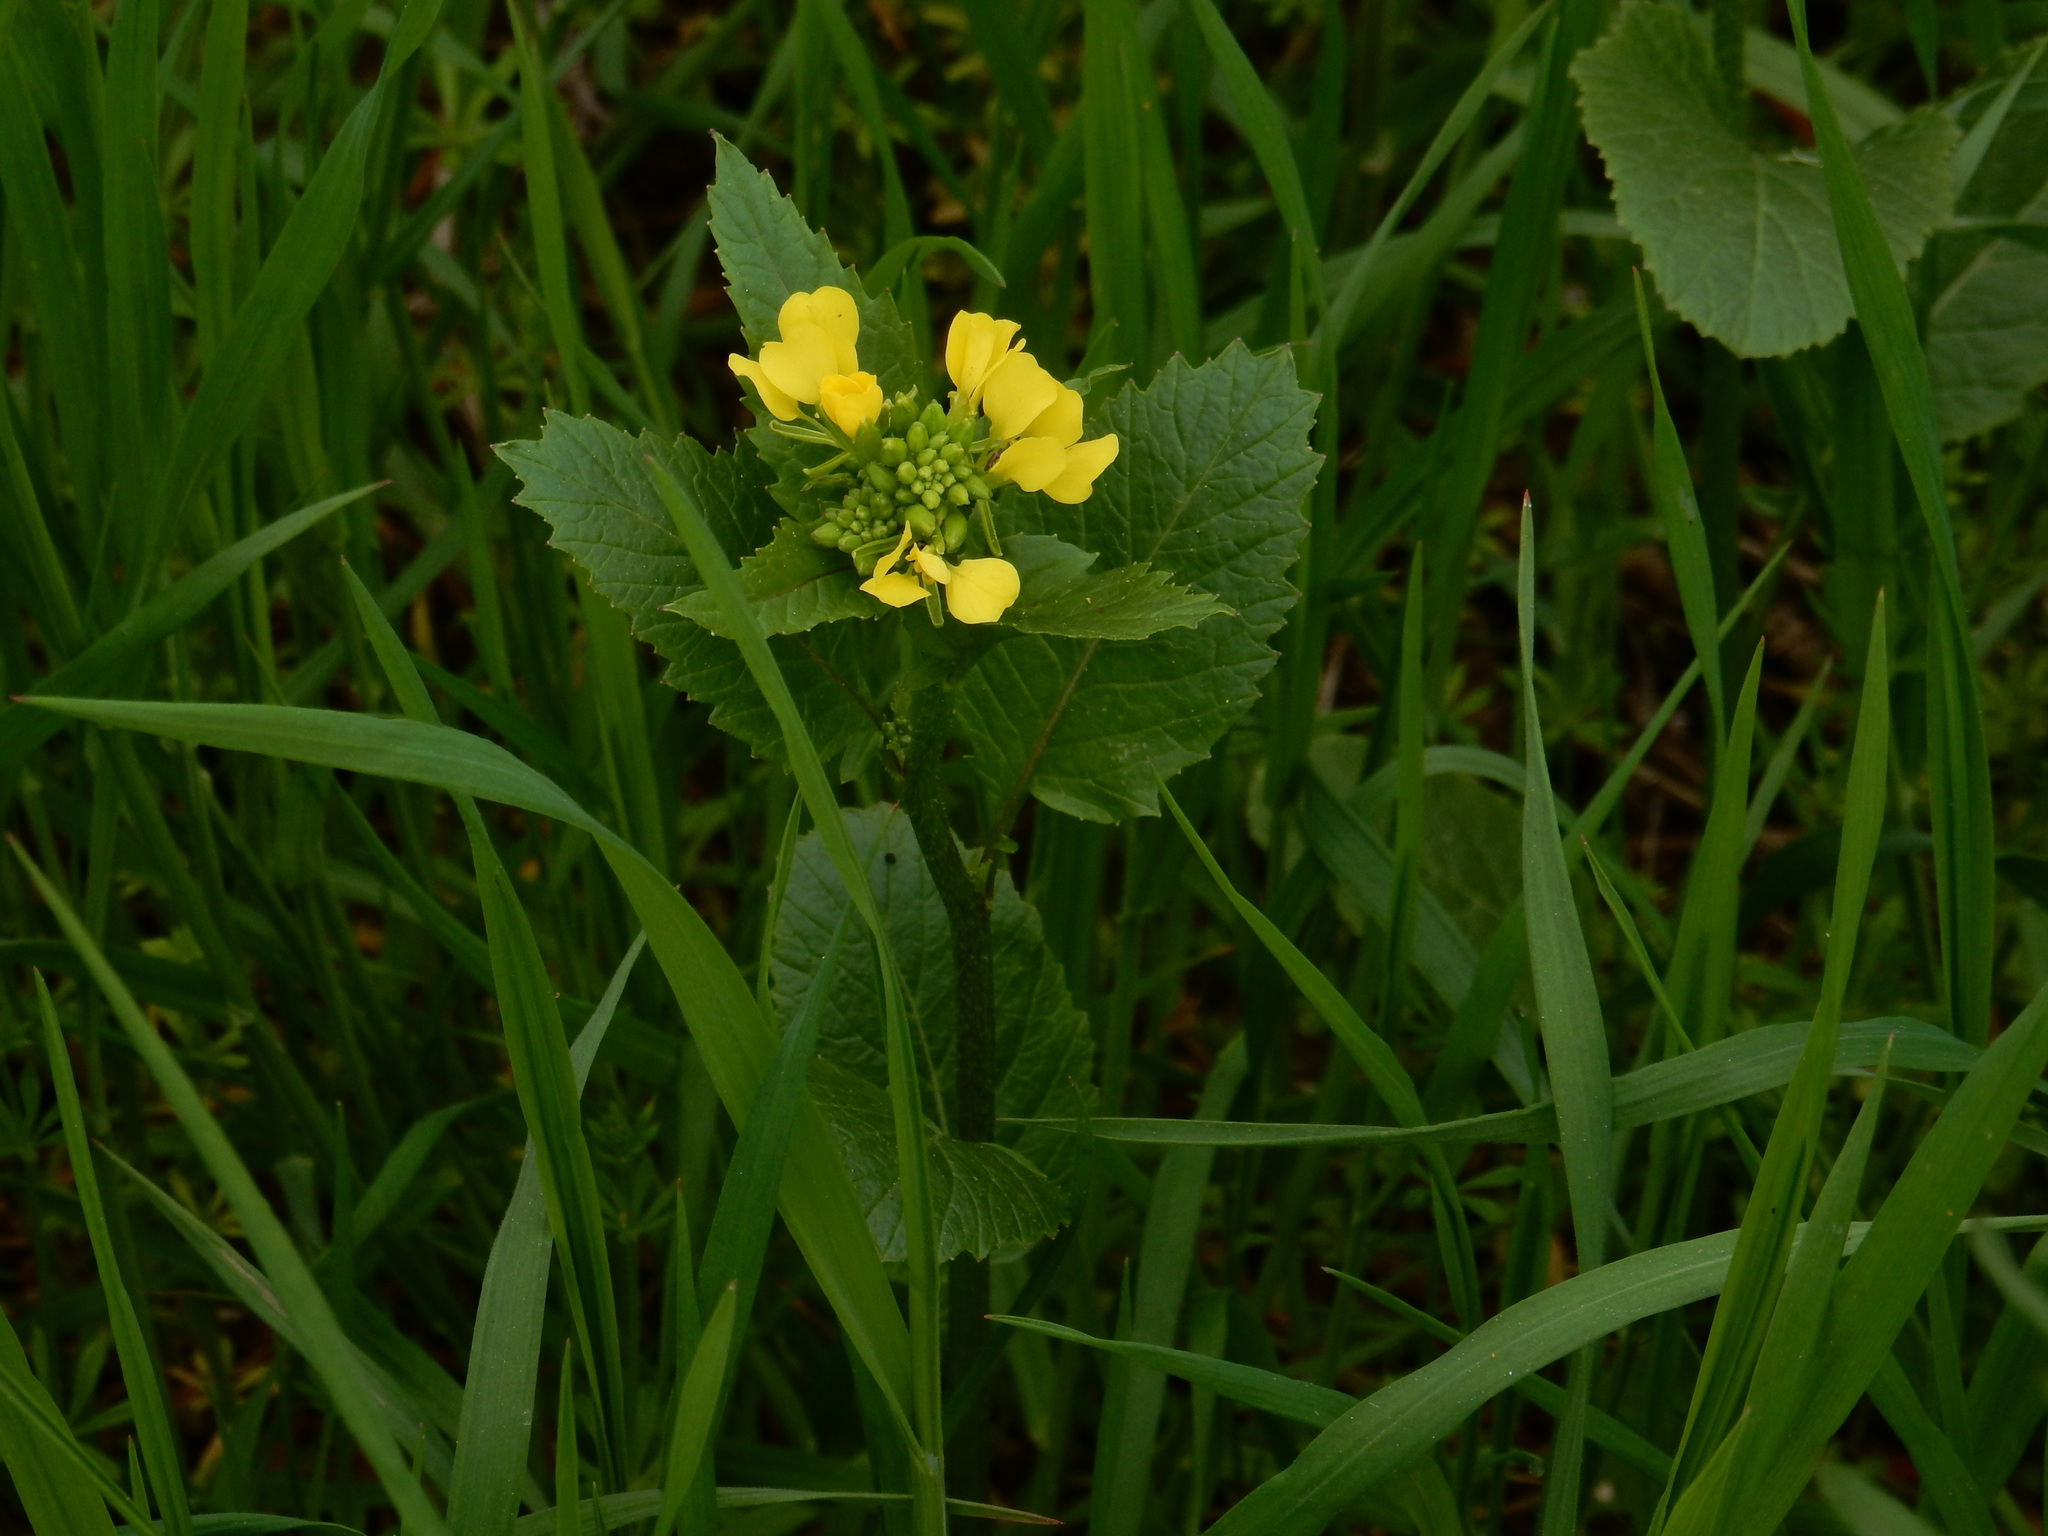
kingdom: Plantae
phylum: Tracheophyta
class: Magnoliopsida
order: Brassicales
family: Brassicaceae
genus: Sinapis
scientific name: Sinapis arvensis
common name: Charlock
